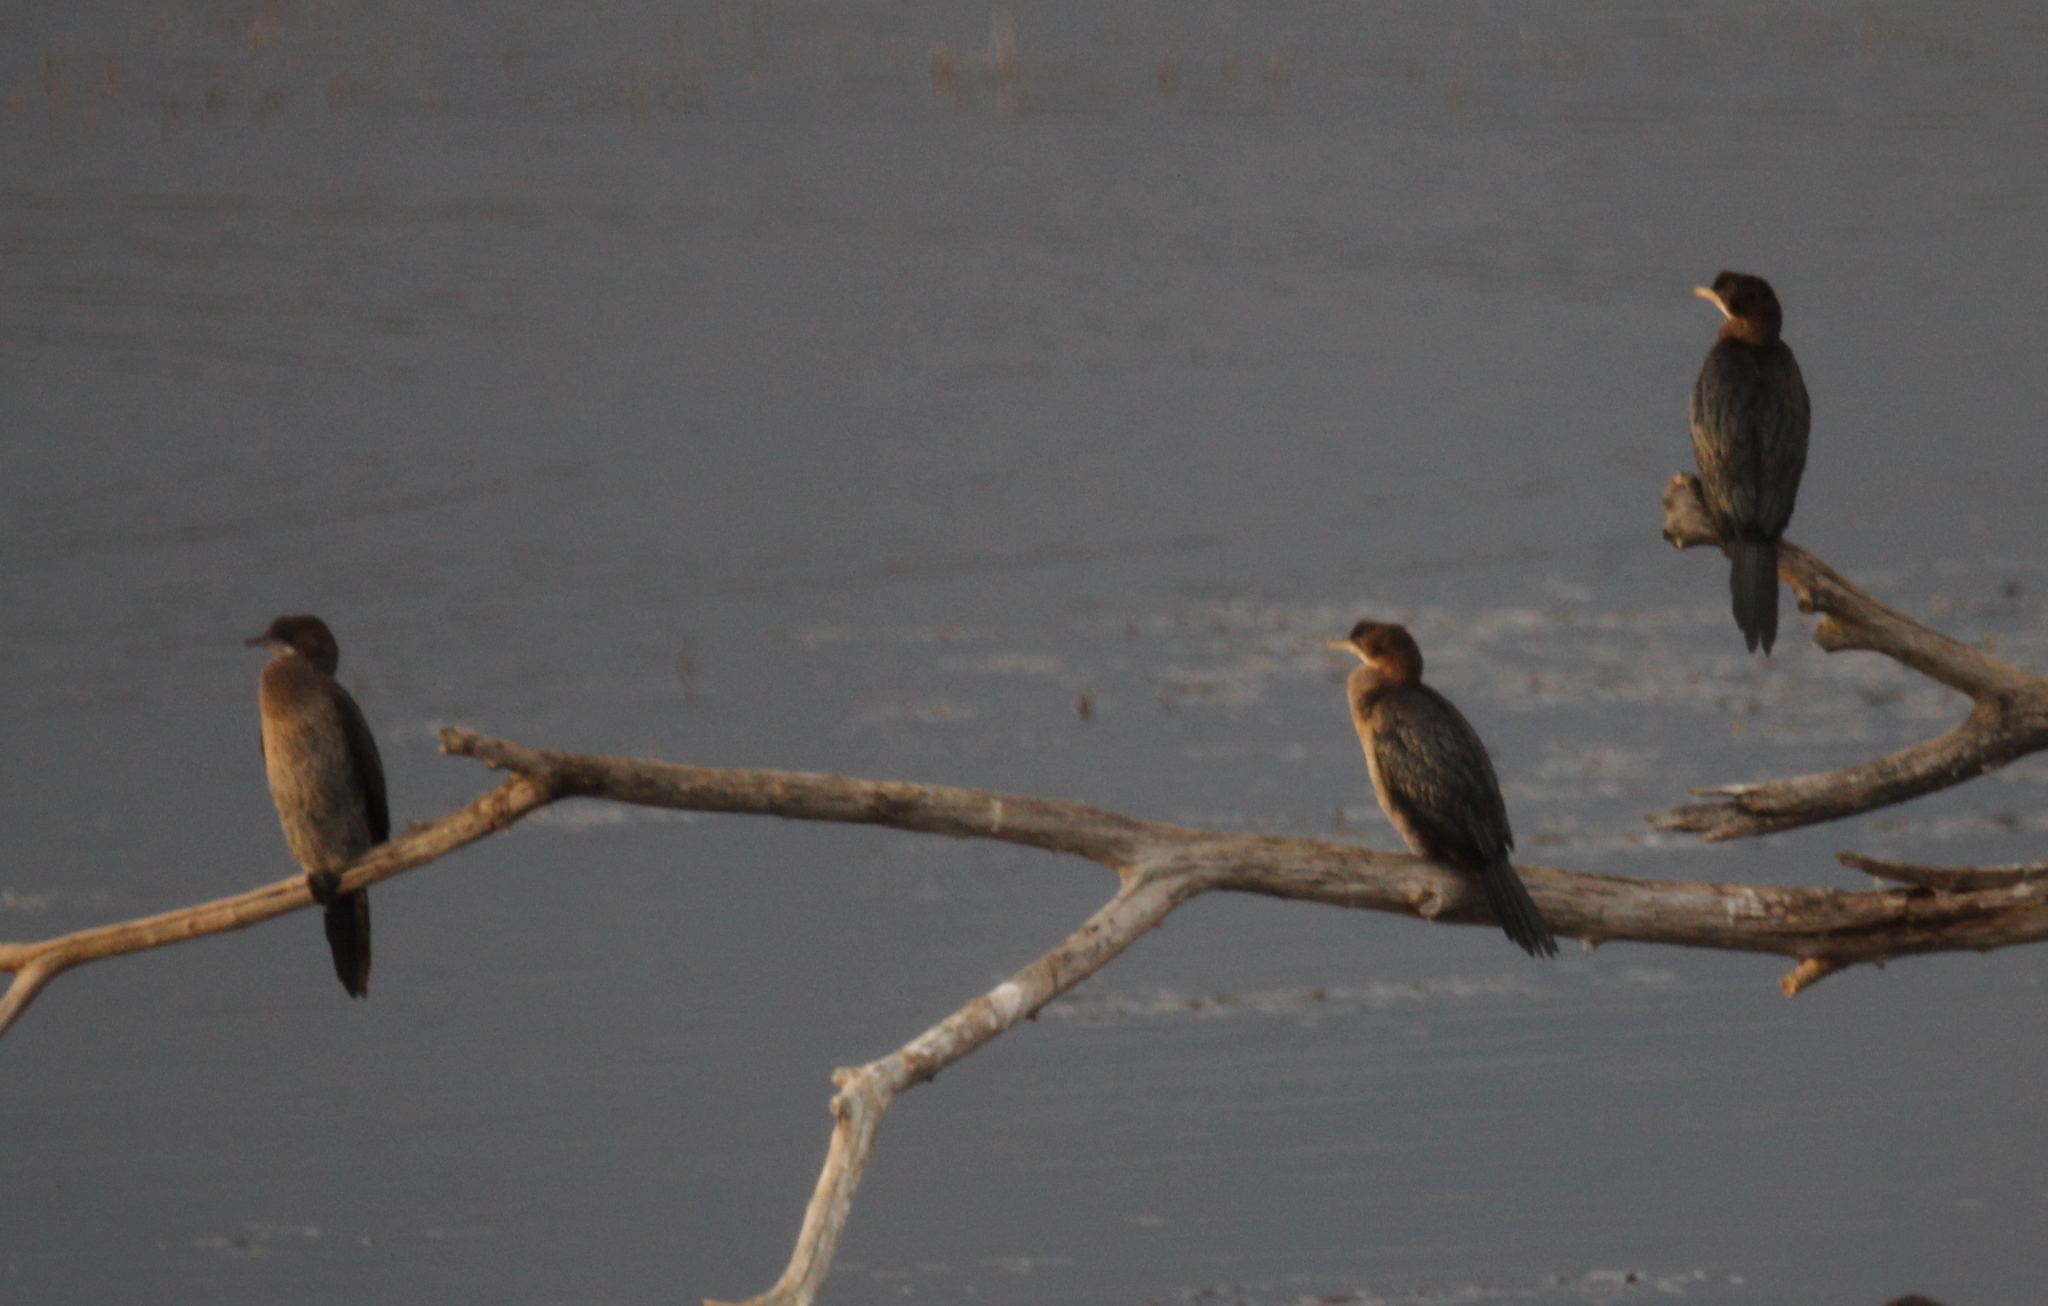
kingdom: Animalia
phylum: Chordata
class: Aves
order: Suliformes
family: Phalacrocoracidae
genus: Microcarbo
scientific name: Microcarbo pygmaeus
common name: Pygmy cormorant
